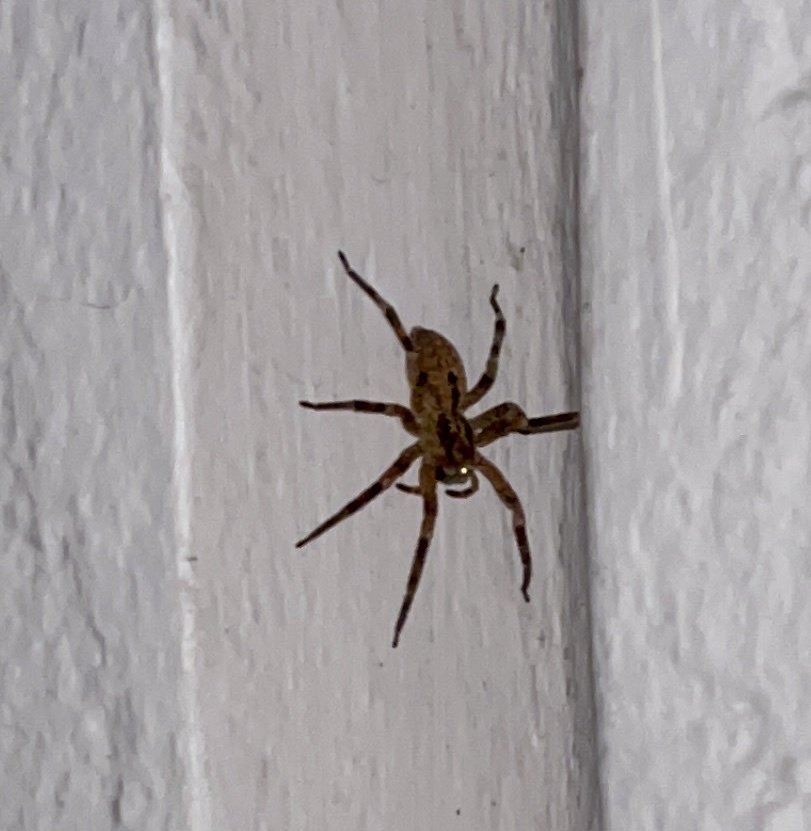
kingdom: Animalia
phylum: Arthropoda
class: Arachnida
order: Araneae
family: Zoropsidae
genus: Zoropsis
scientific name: Zoropsis spinimana
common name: Zoropsid spider
